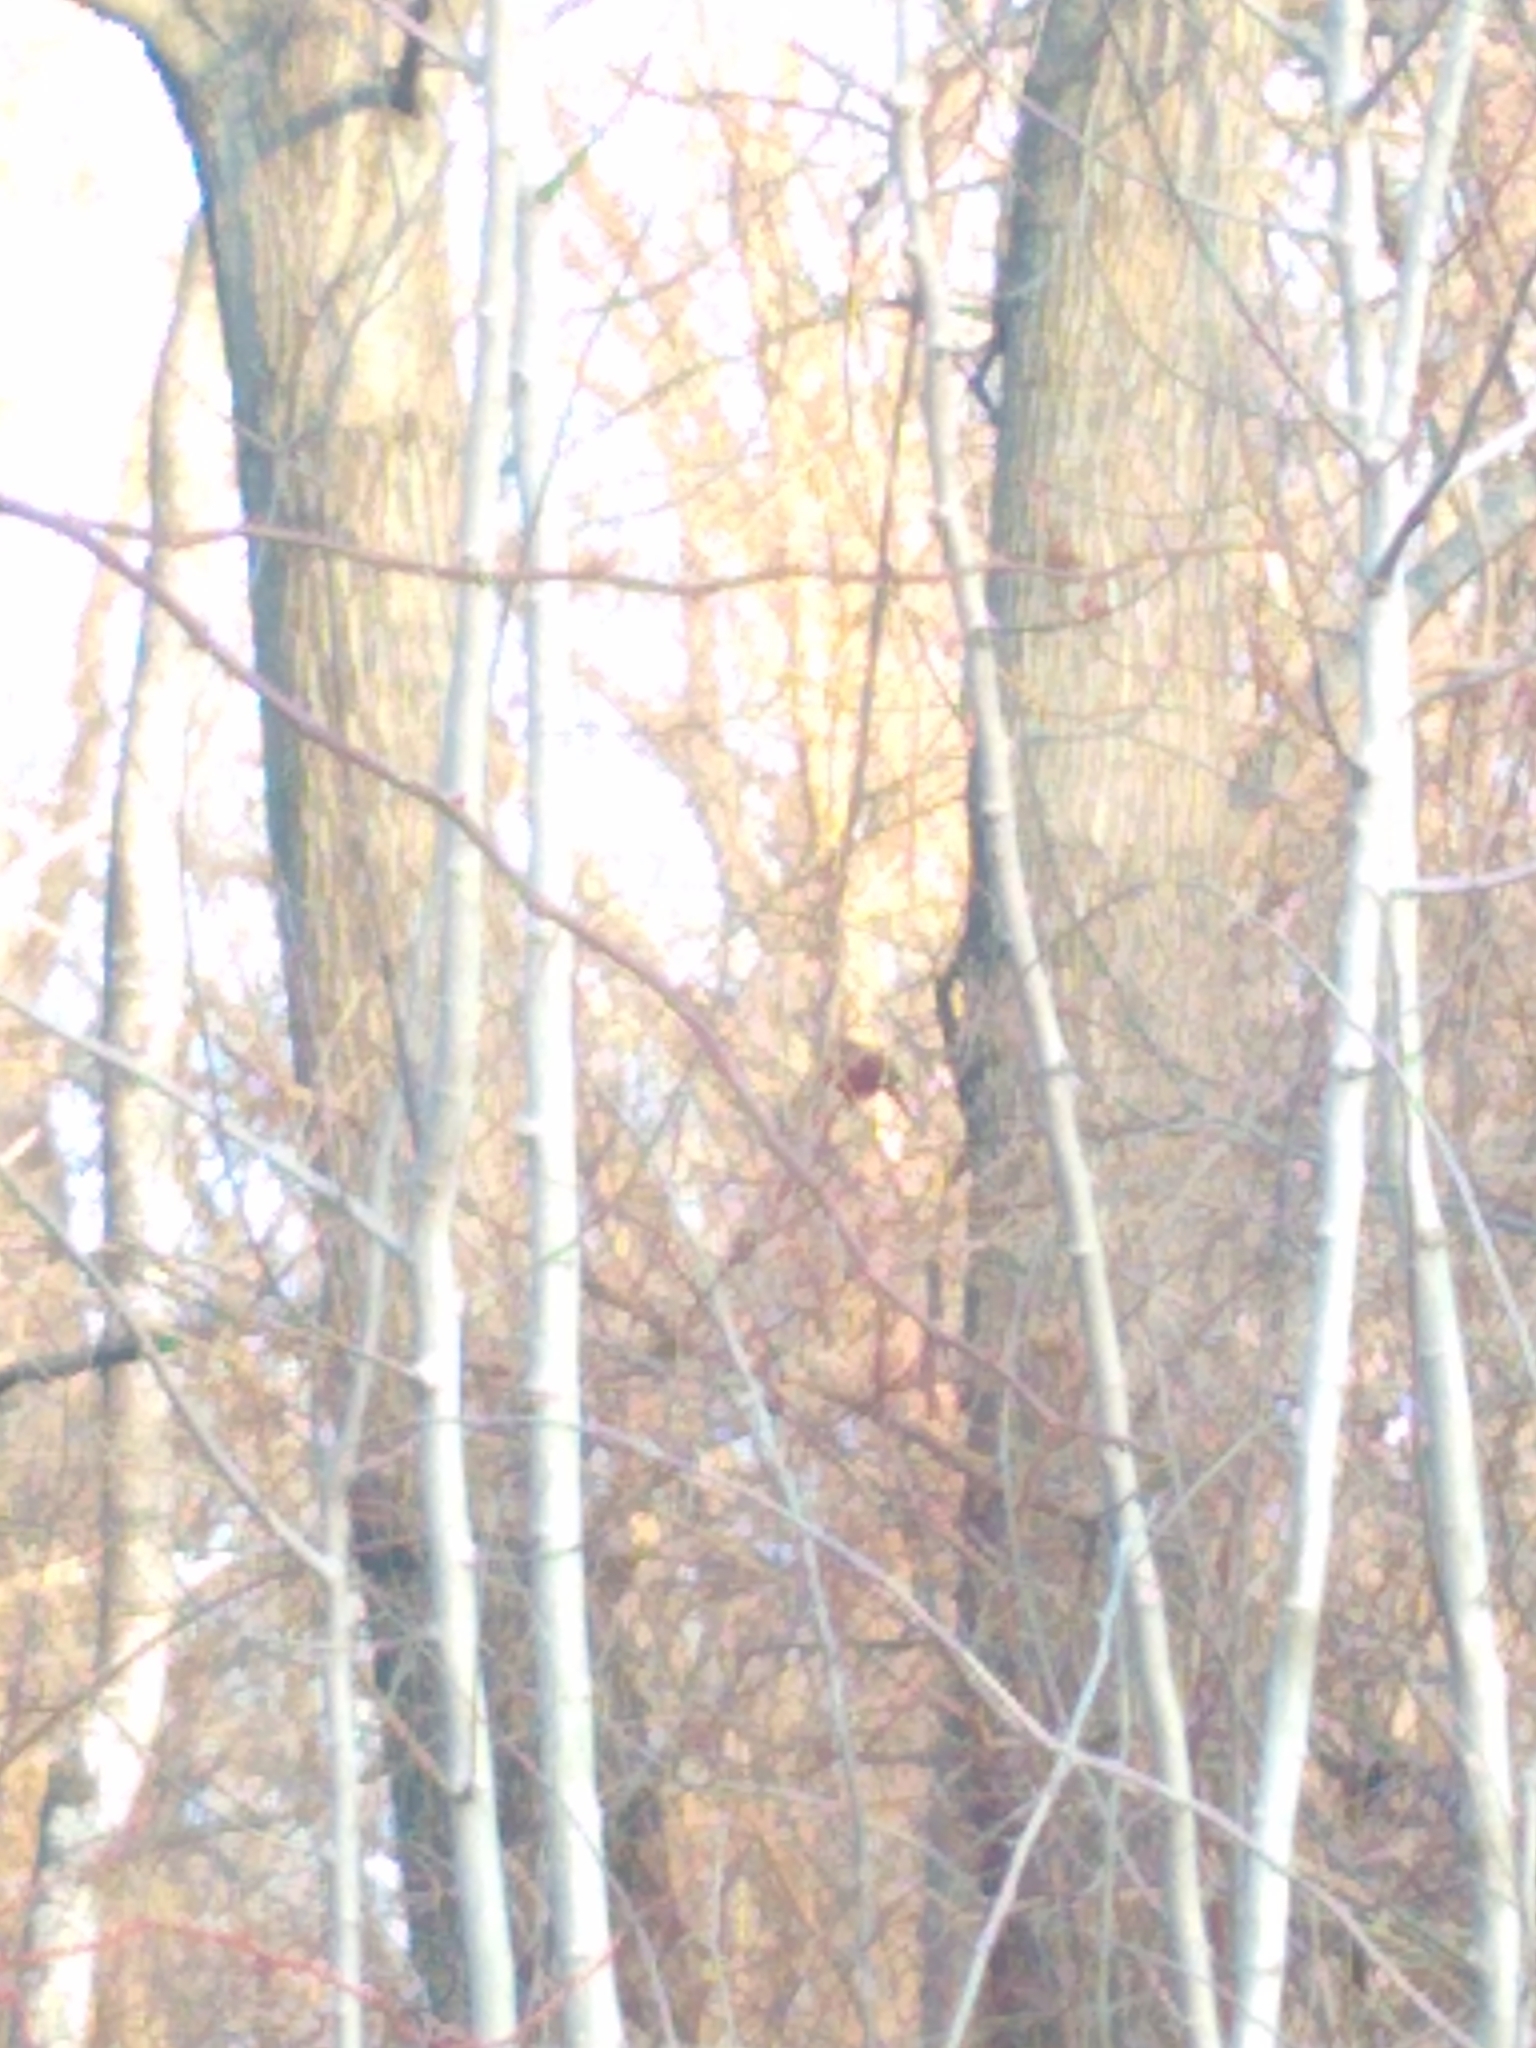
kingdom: Animalia
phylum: Chordata
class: Aves
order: Passeriformes
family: Cardinalidae
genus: Cardinalis
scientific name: Cardinalis cardinalis
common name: Northern cardinal
